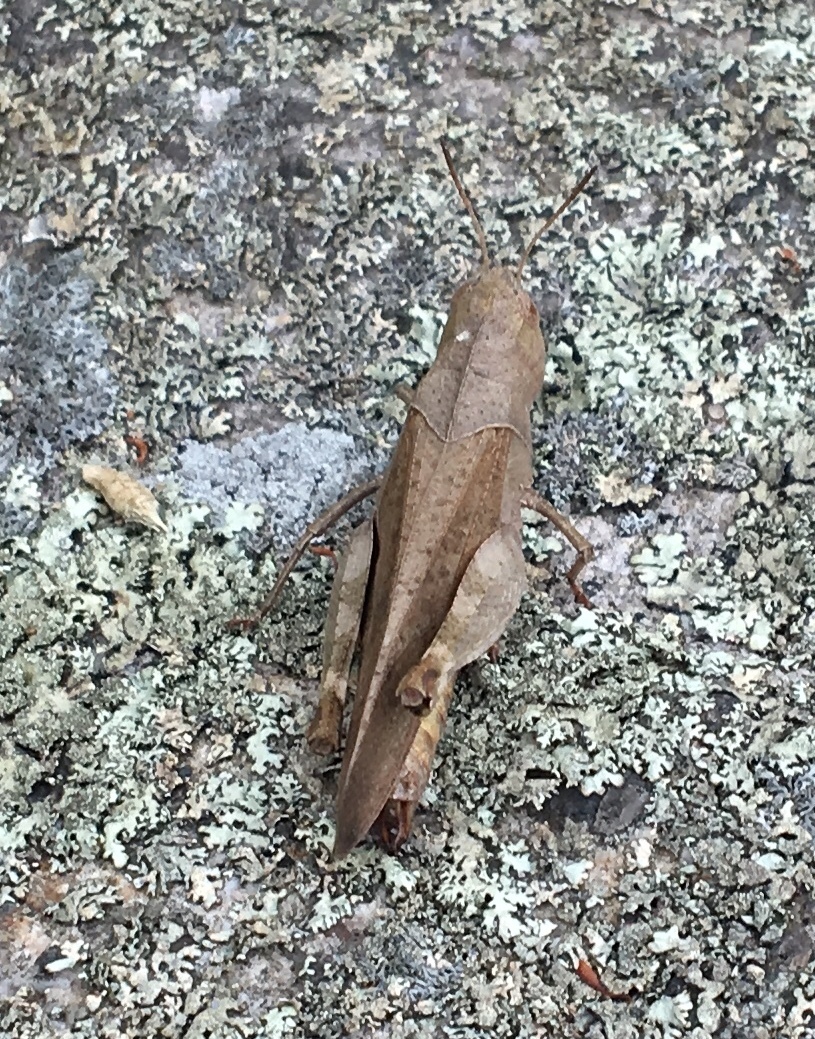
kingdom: Animalia
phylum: Arthropoda
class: Insecta
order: Orthoptera
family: Acrididae
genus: Arphia
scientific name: Arphia sulphurea
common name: Spring yellow-winged locust
